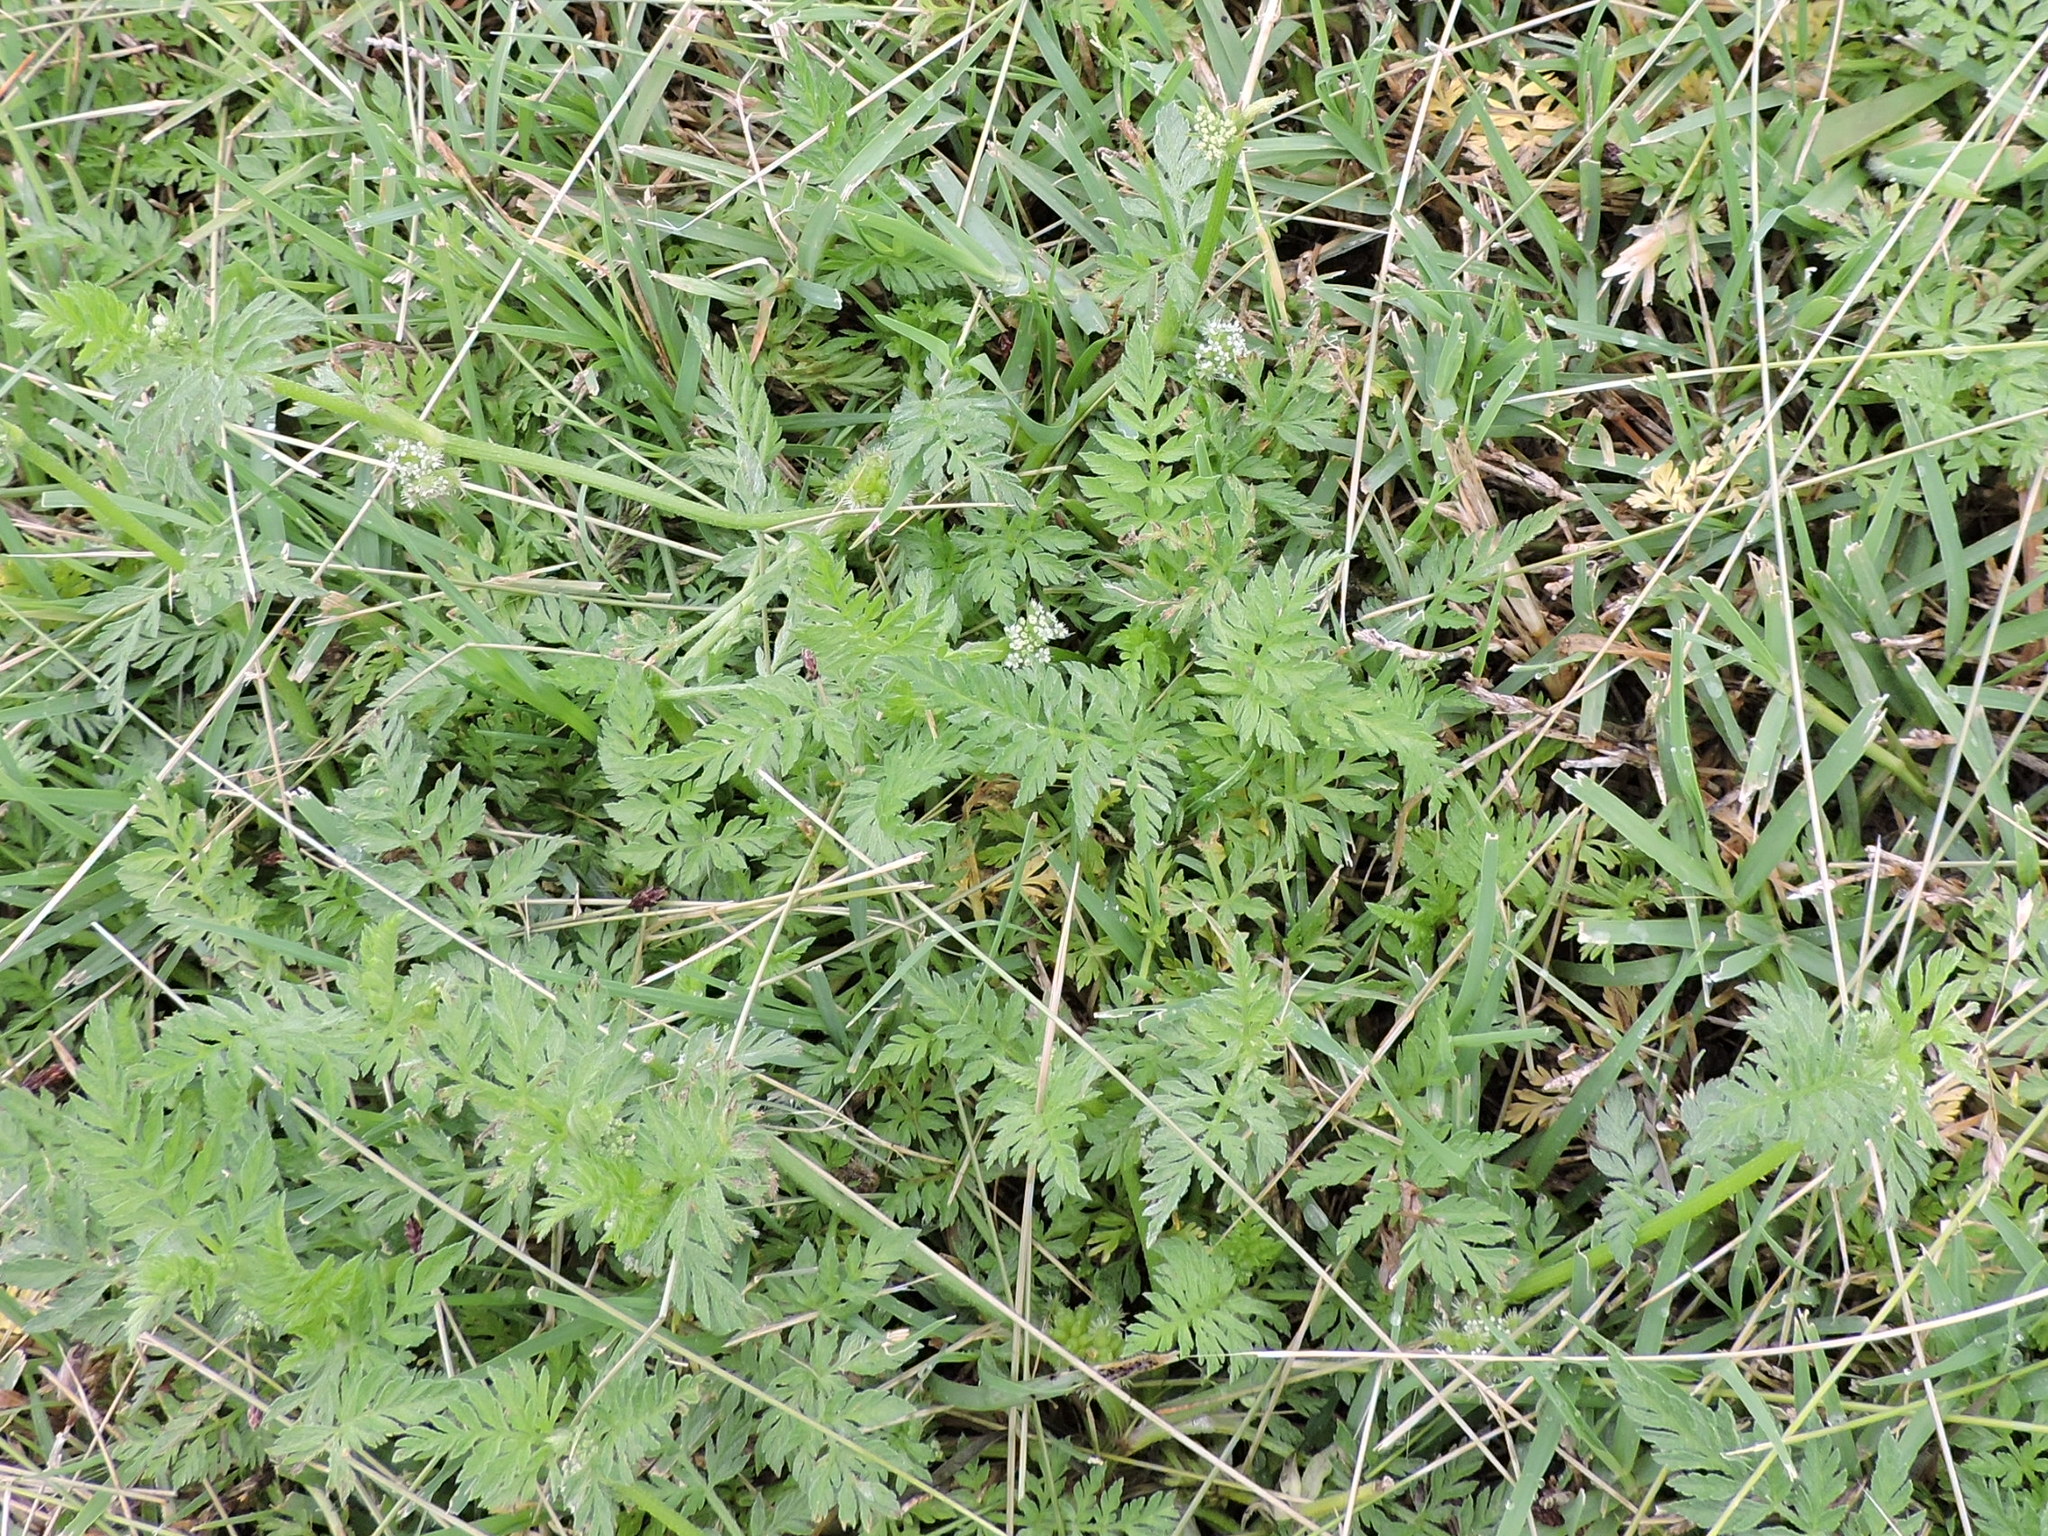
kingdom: Plantae
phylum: Tracheophyta
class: Magnoliopsida
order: Apiales
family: Apiaceae
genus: Torilis
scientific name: Torilis nodosa
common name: Knotted hedge-parsley
